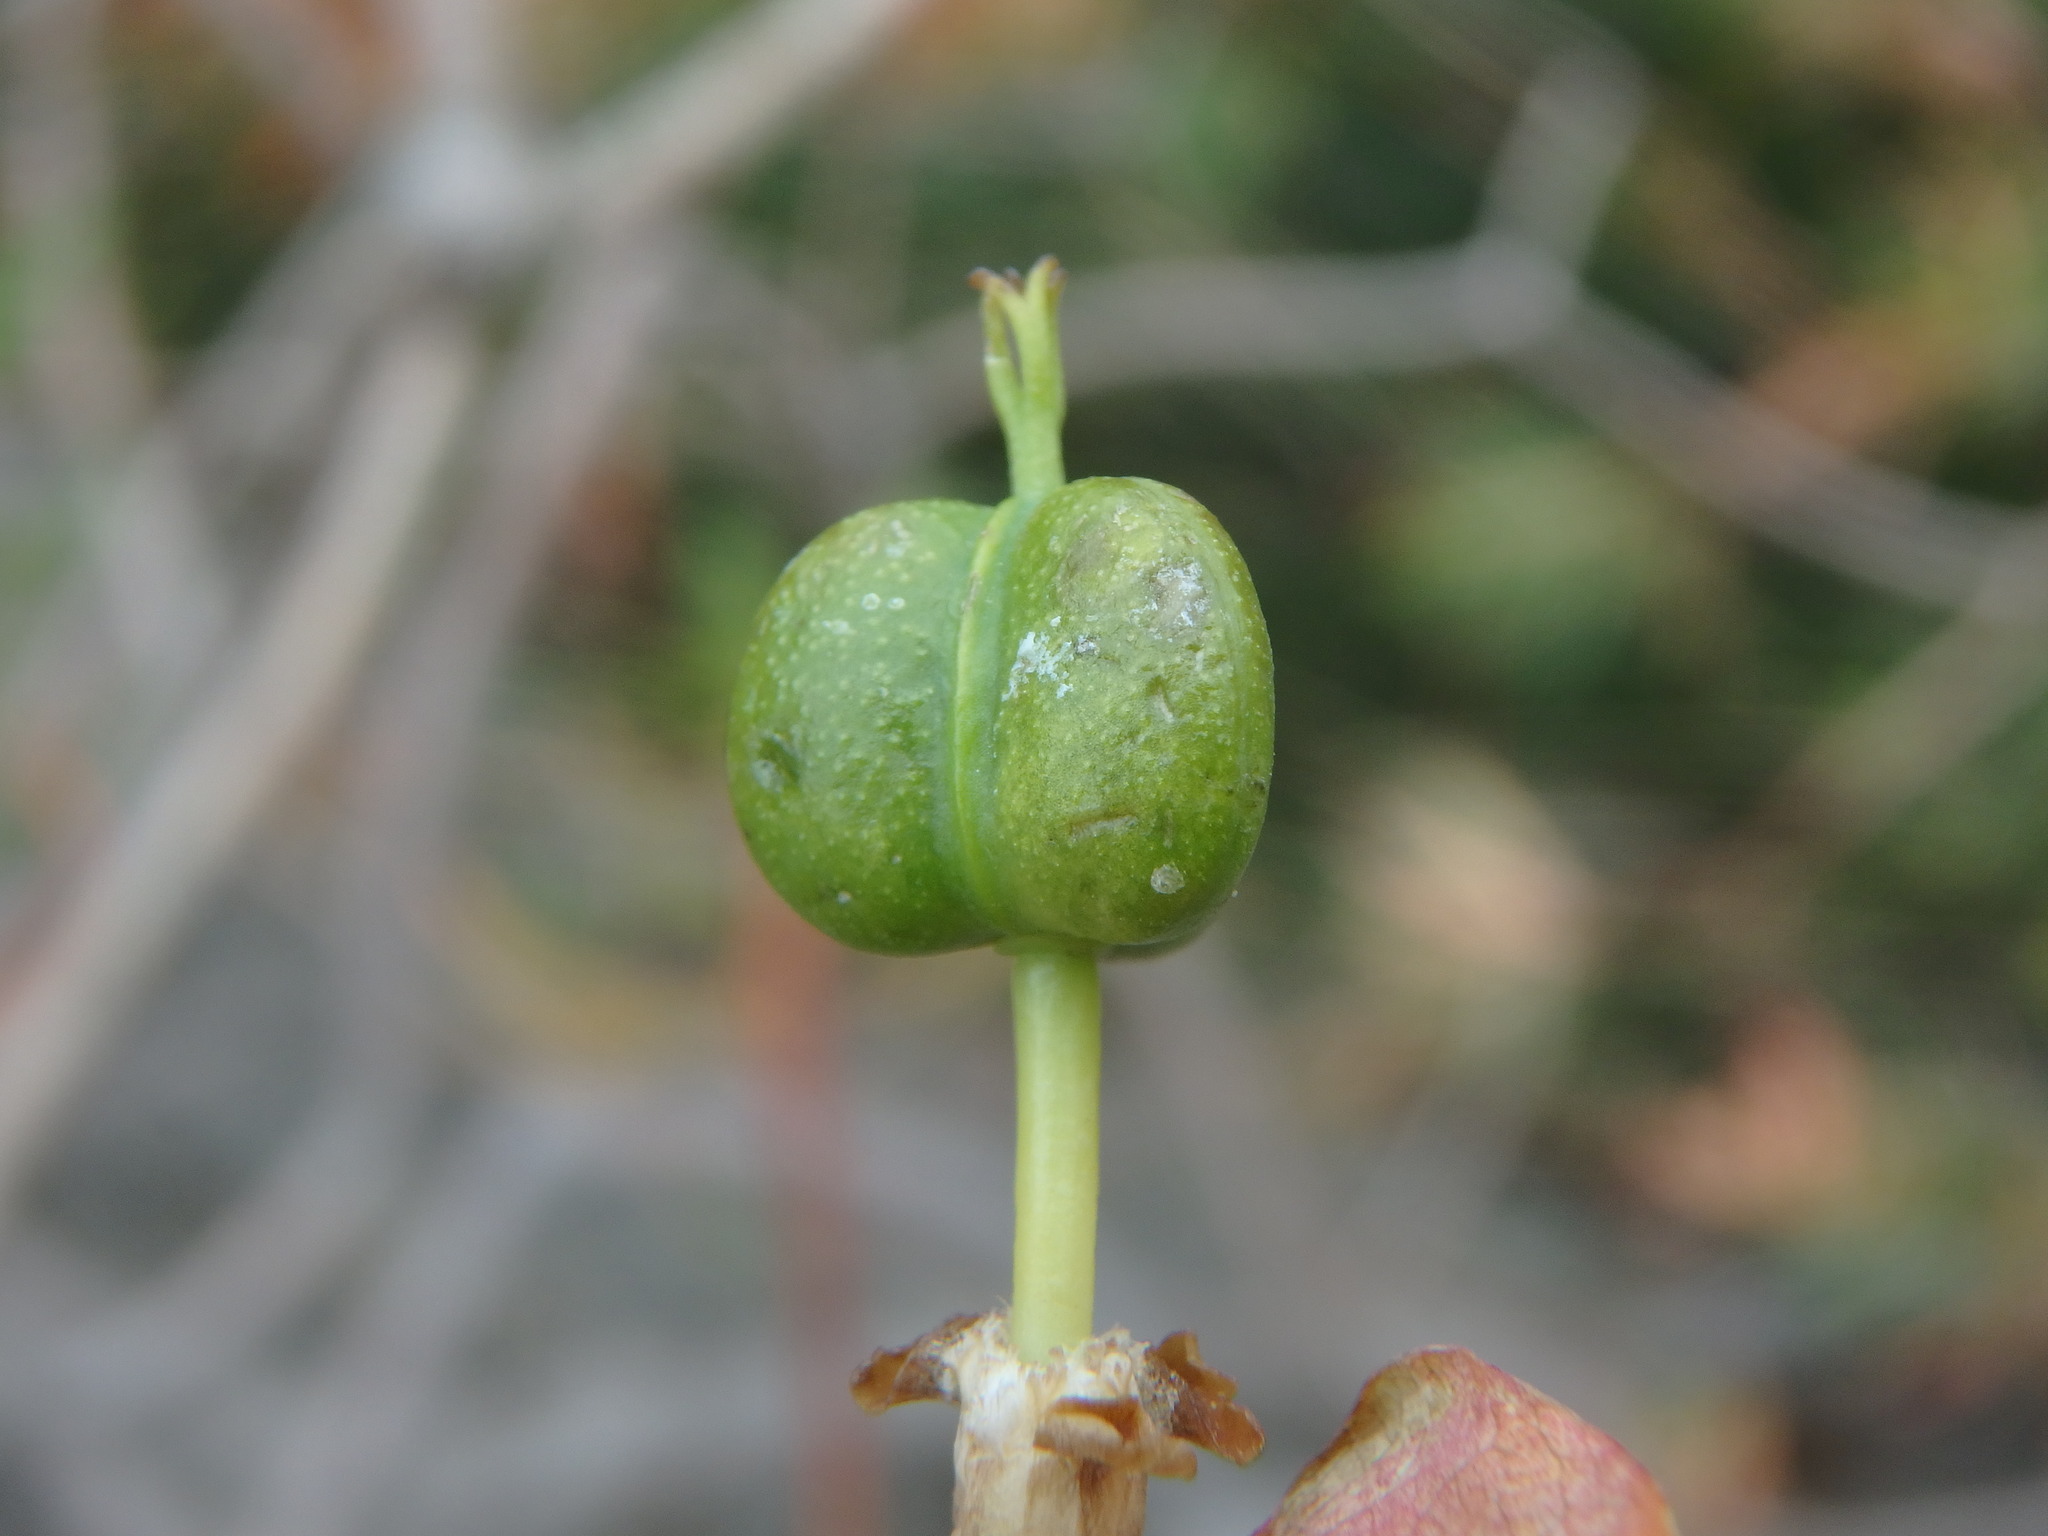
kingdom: Plantae
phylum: Tracheophyta
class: Magnoliopsida
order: Malpighiales
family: Euphorbiaceae
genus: Euphorbia
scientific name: Euphorbia dendroides
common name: Tree spurge
